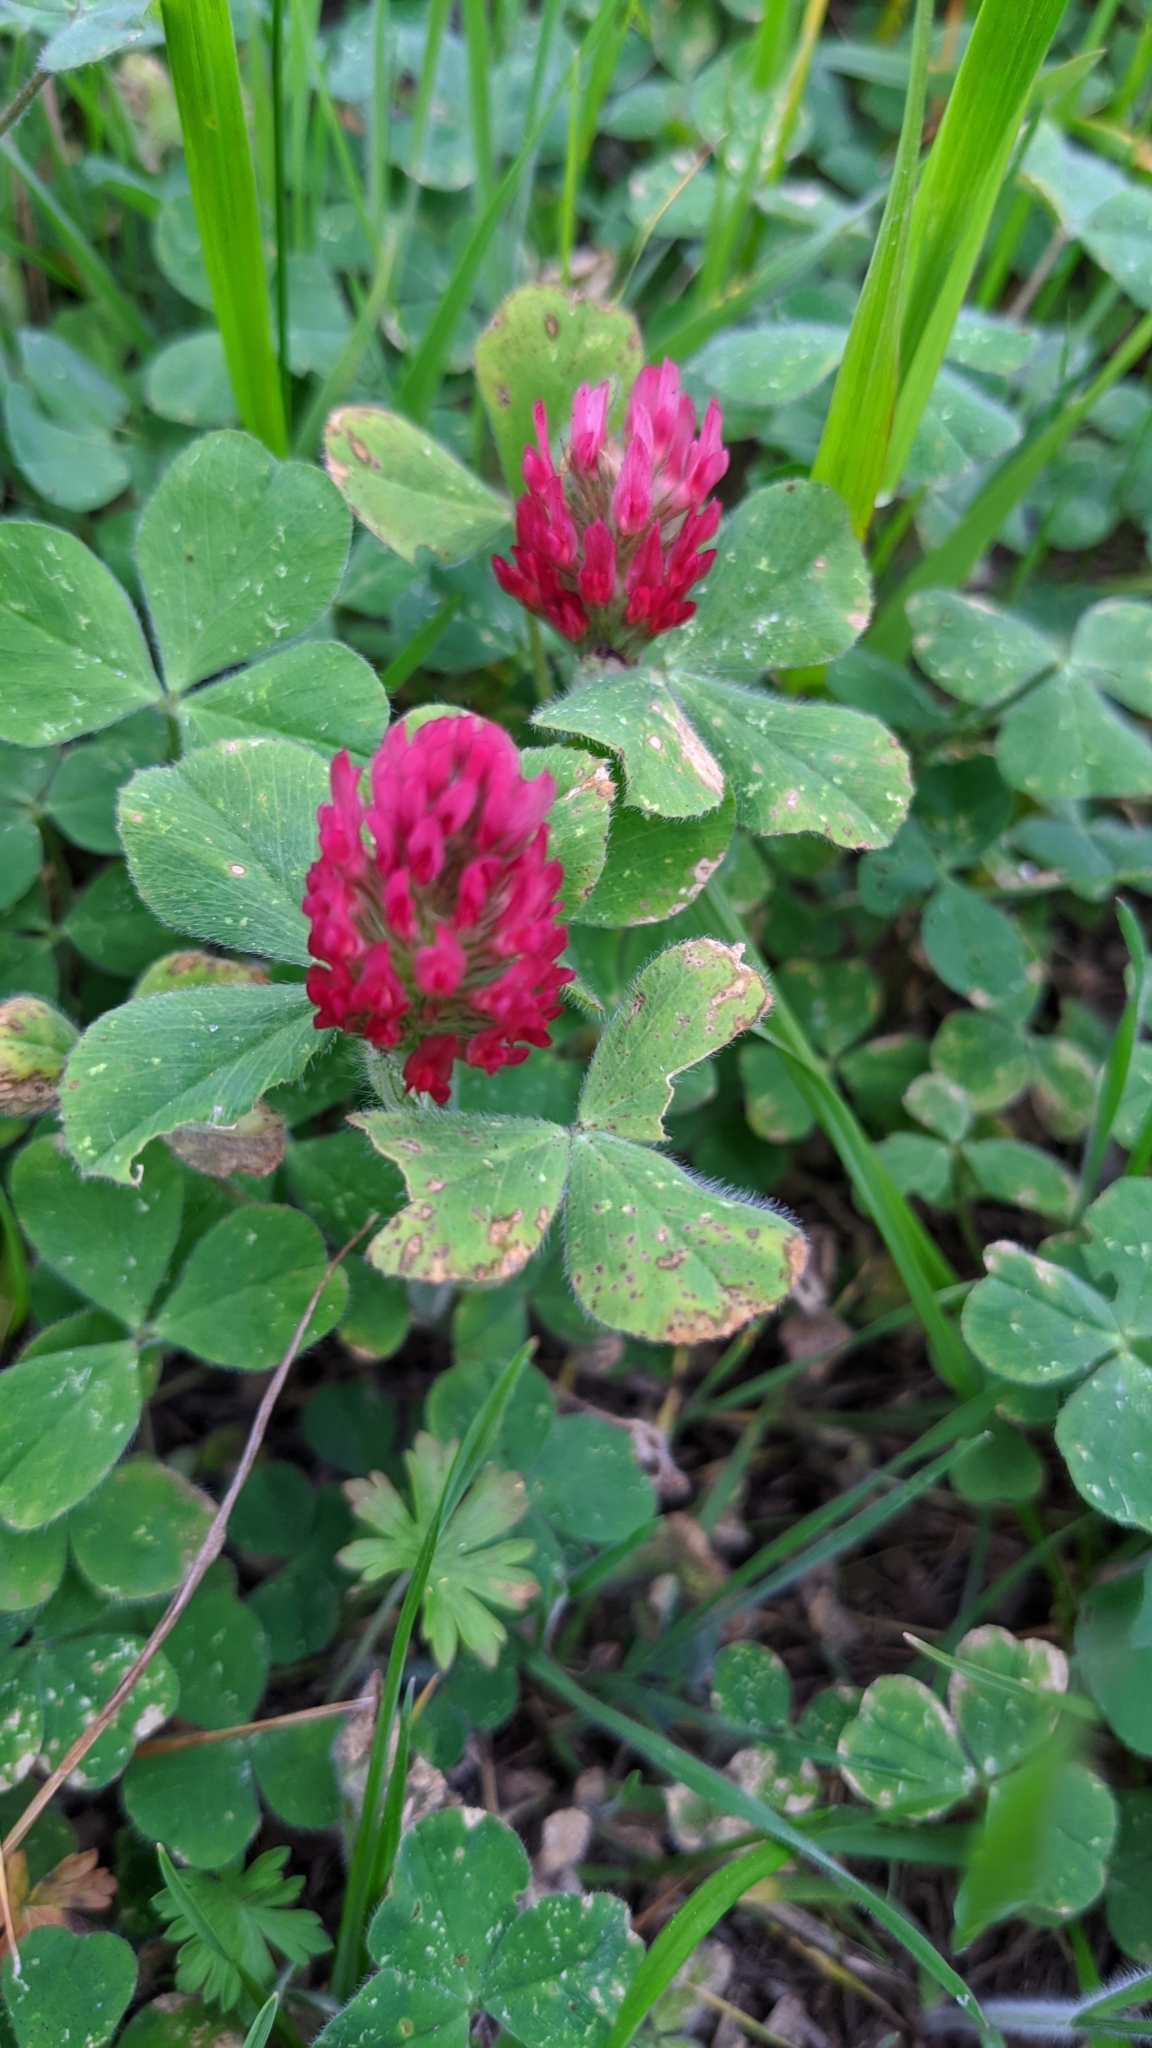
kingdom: Plantae
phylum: Tracheophyta
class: Magnoliopsida
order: Fabales
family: Fabaceae
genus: Trifolium
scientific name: Trifolium incarnatum
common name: Crimson clover
